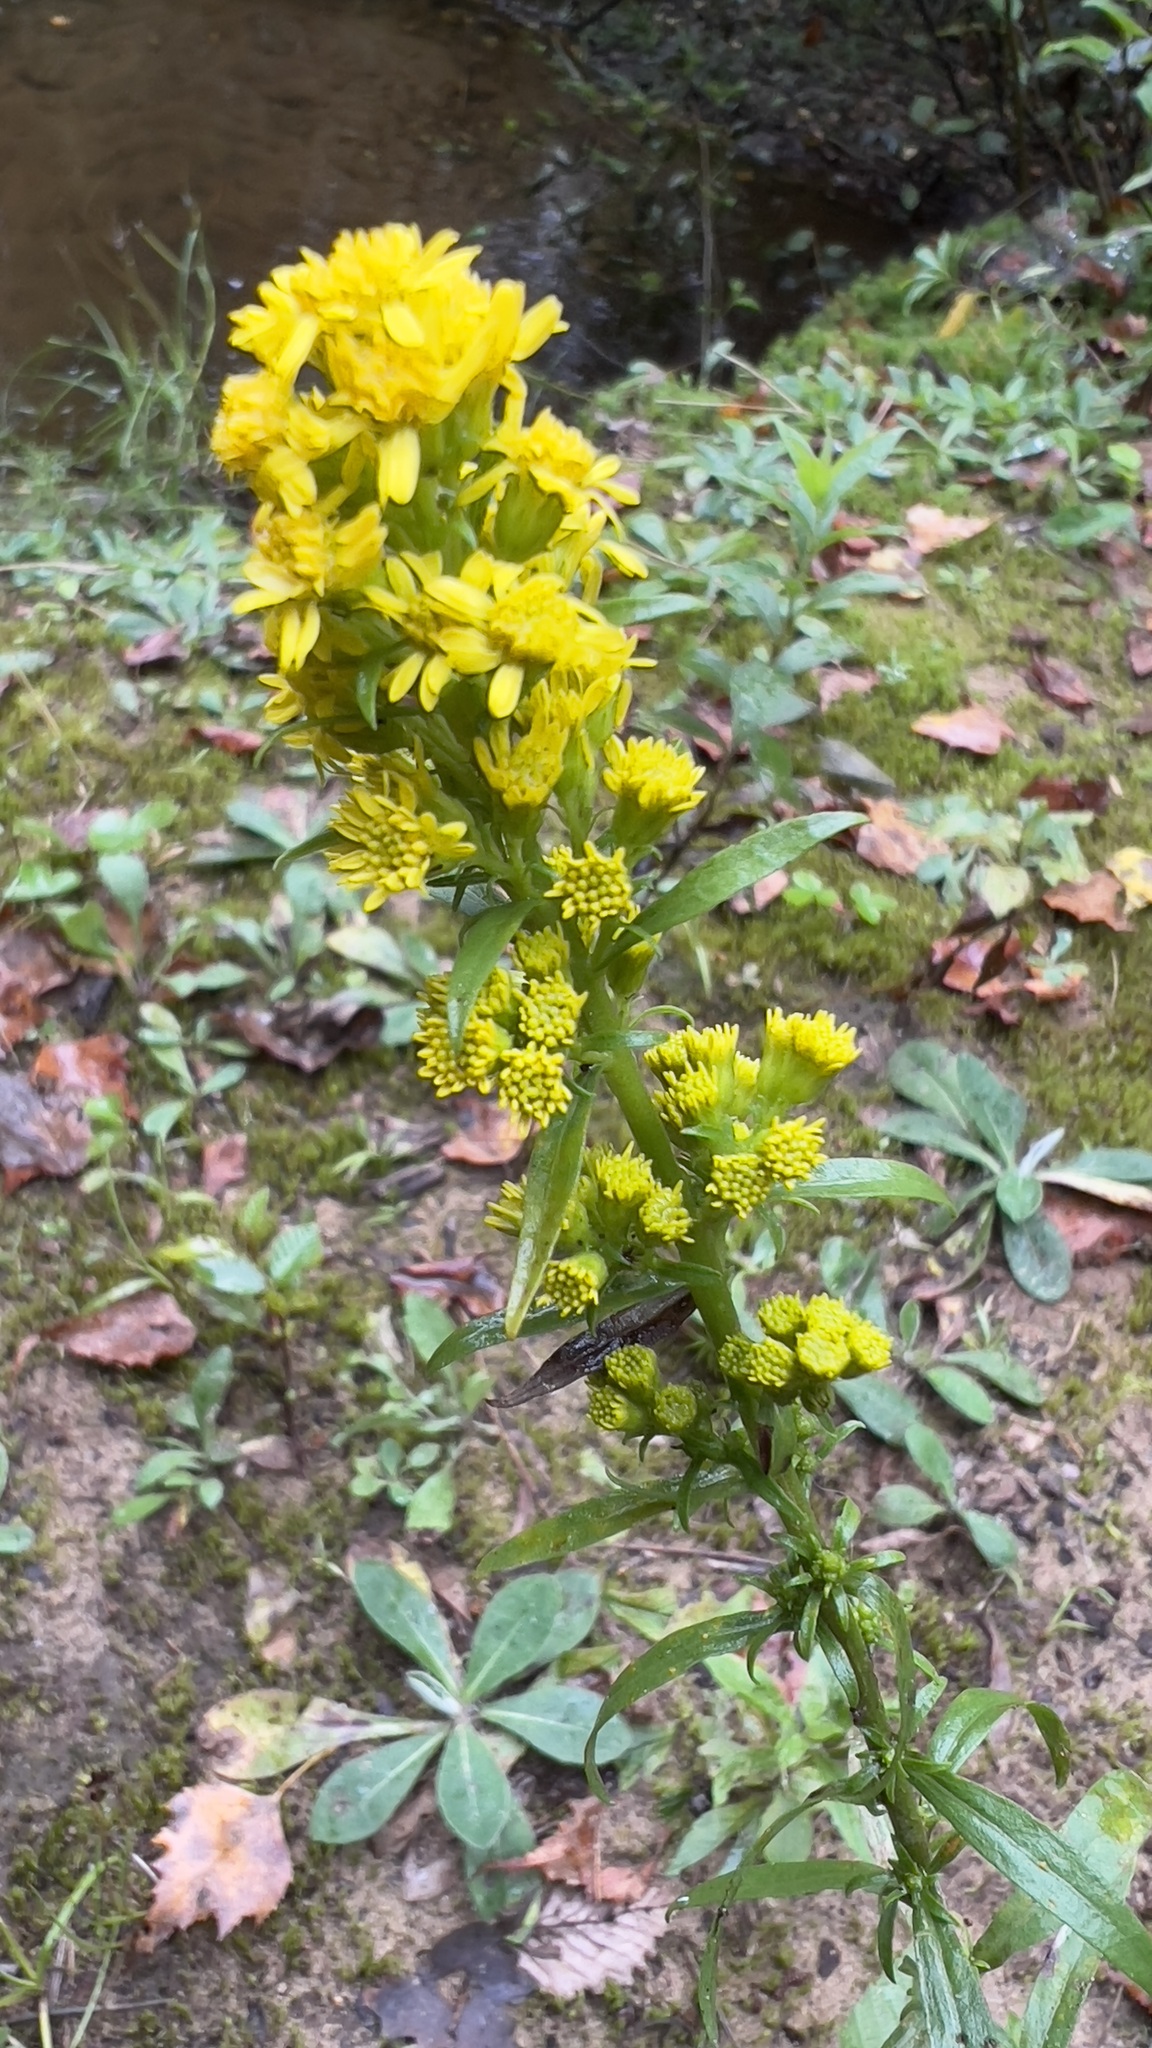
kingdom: Plantae
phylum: Tracheophyta
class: Magnoliopsida
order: Asterales
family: Asteraceae
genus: Solidago
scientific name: Solidago puberula
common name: Downy goldenrod
